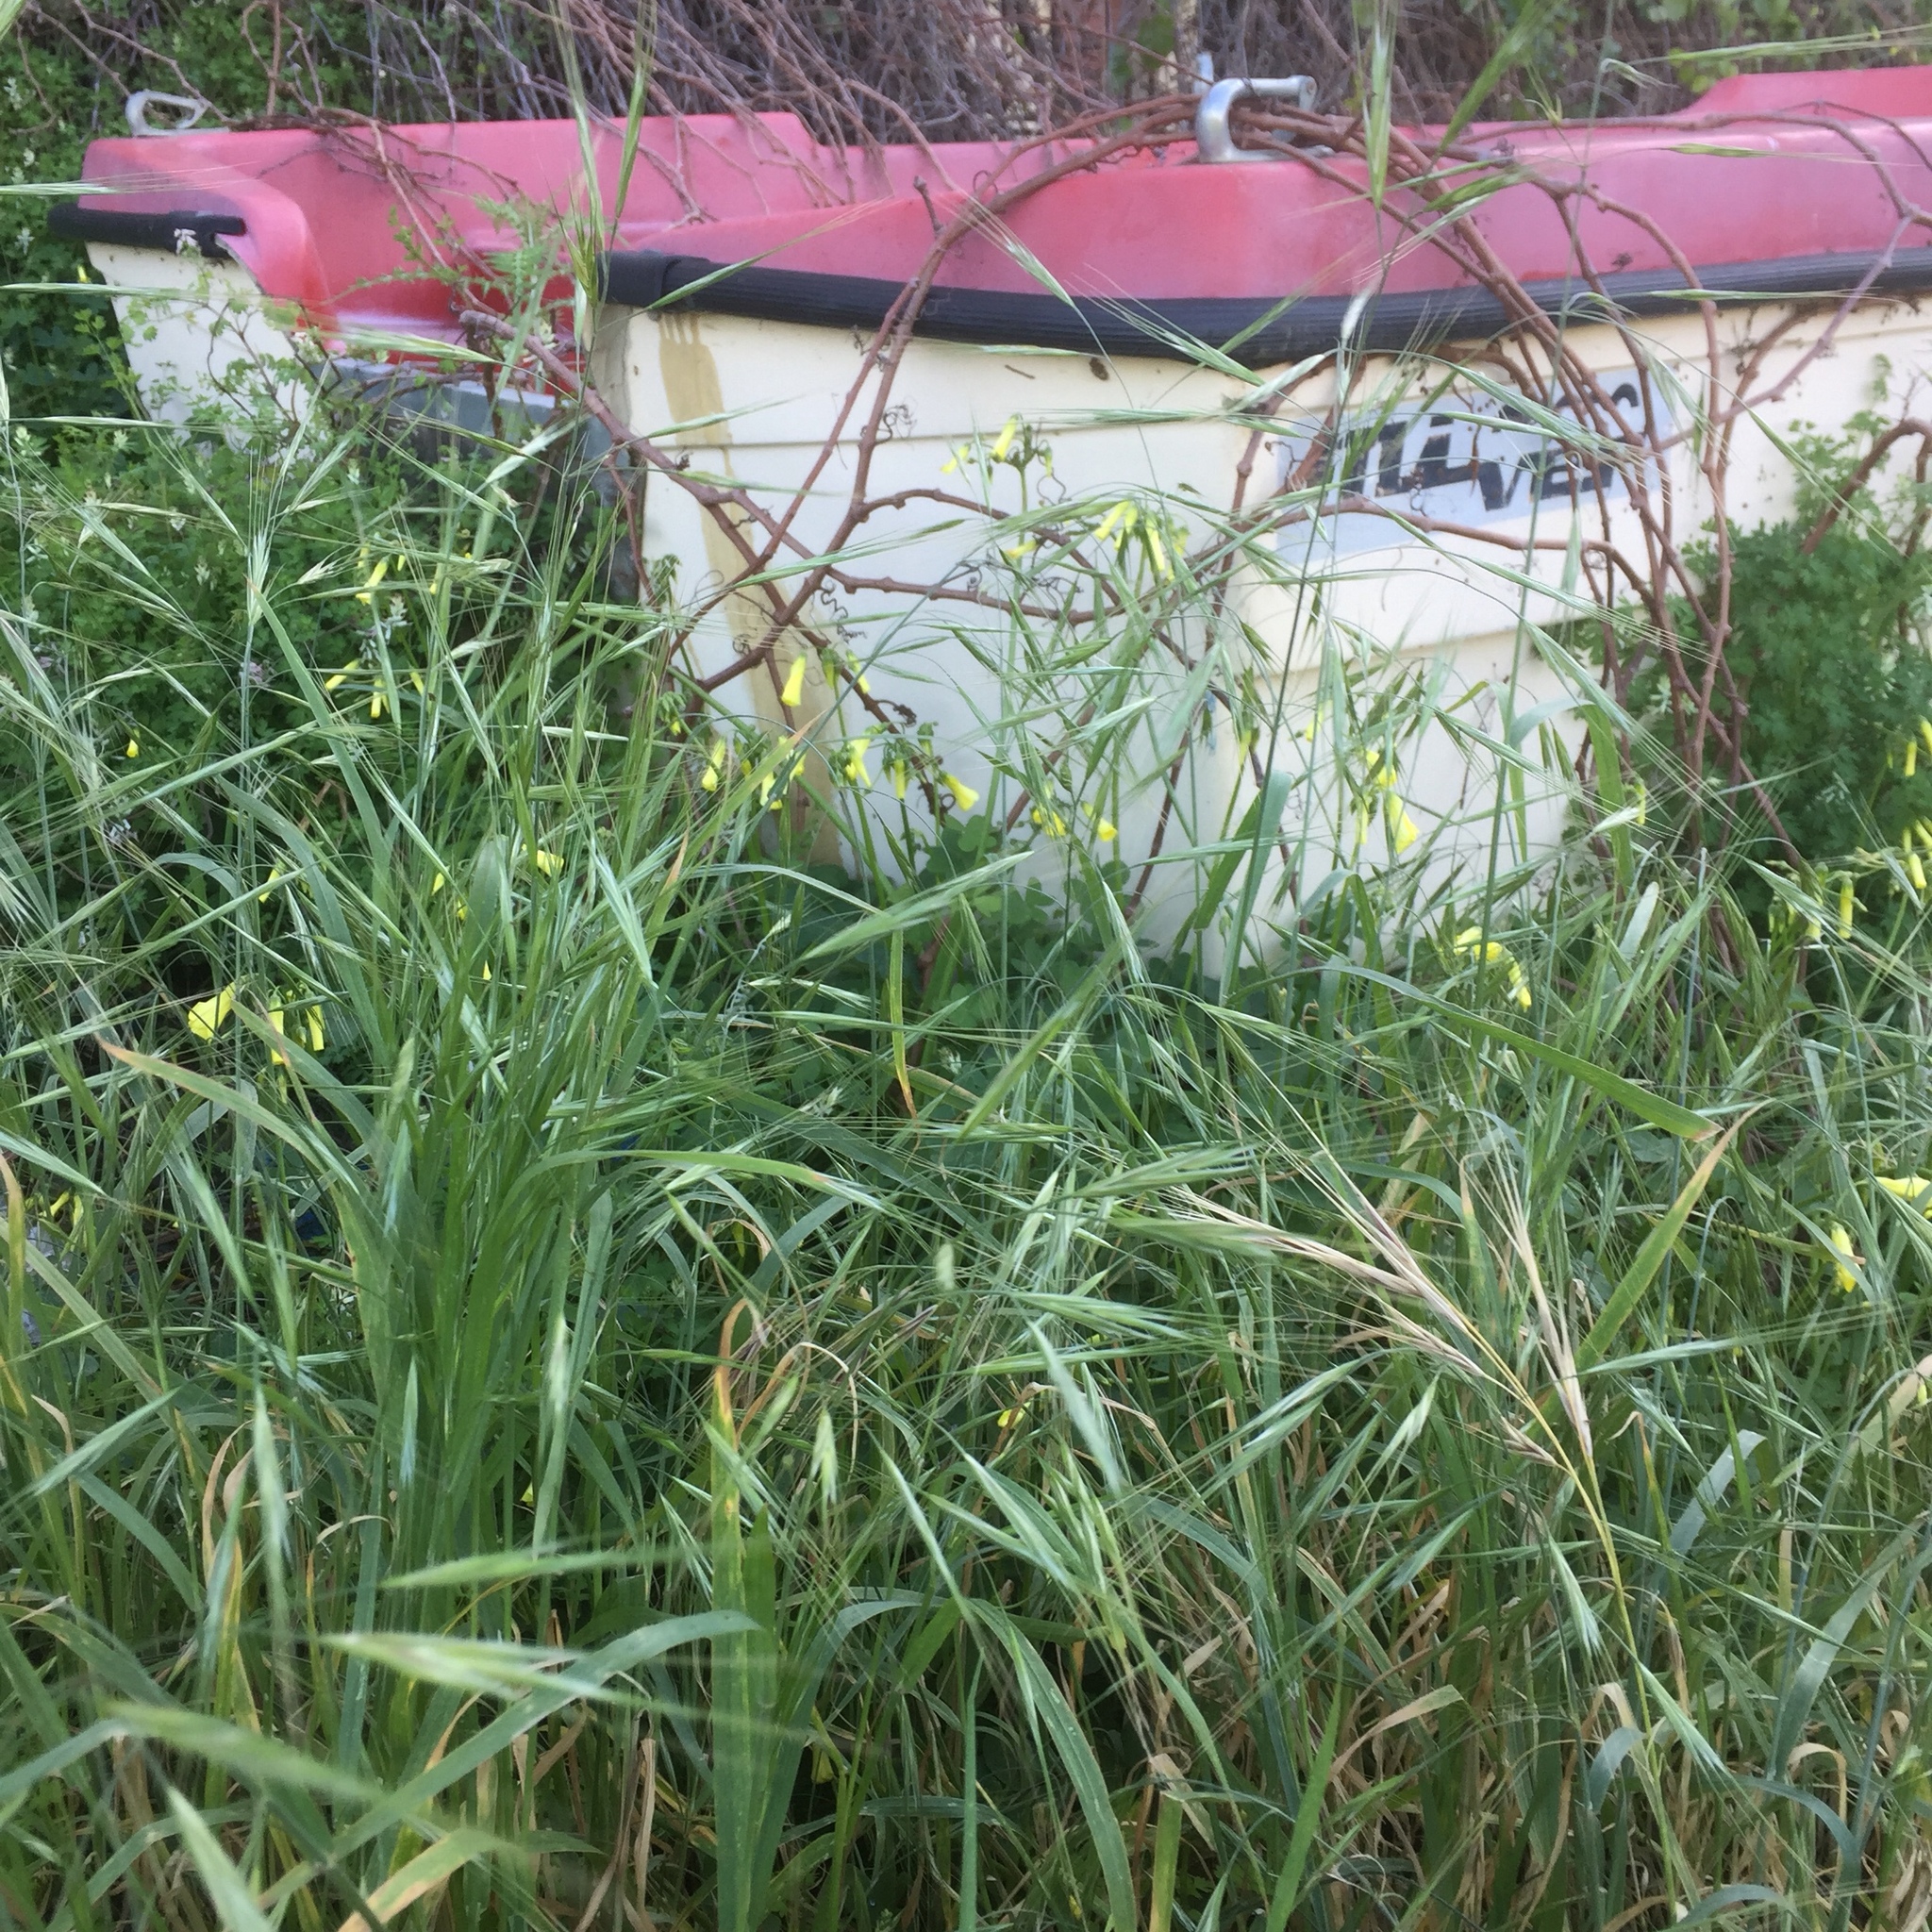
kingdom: Plantae
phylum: Tracheophyta
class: Magnoliopsida
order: Oxalidales
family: Oxalidaceae
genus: Oxalis
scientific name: Oxalis pes-caprae
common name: Bermuda-buttercup
